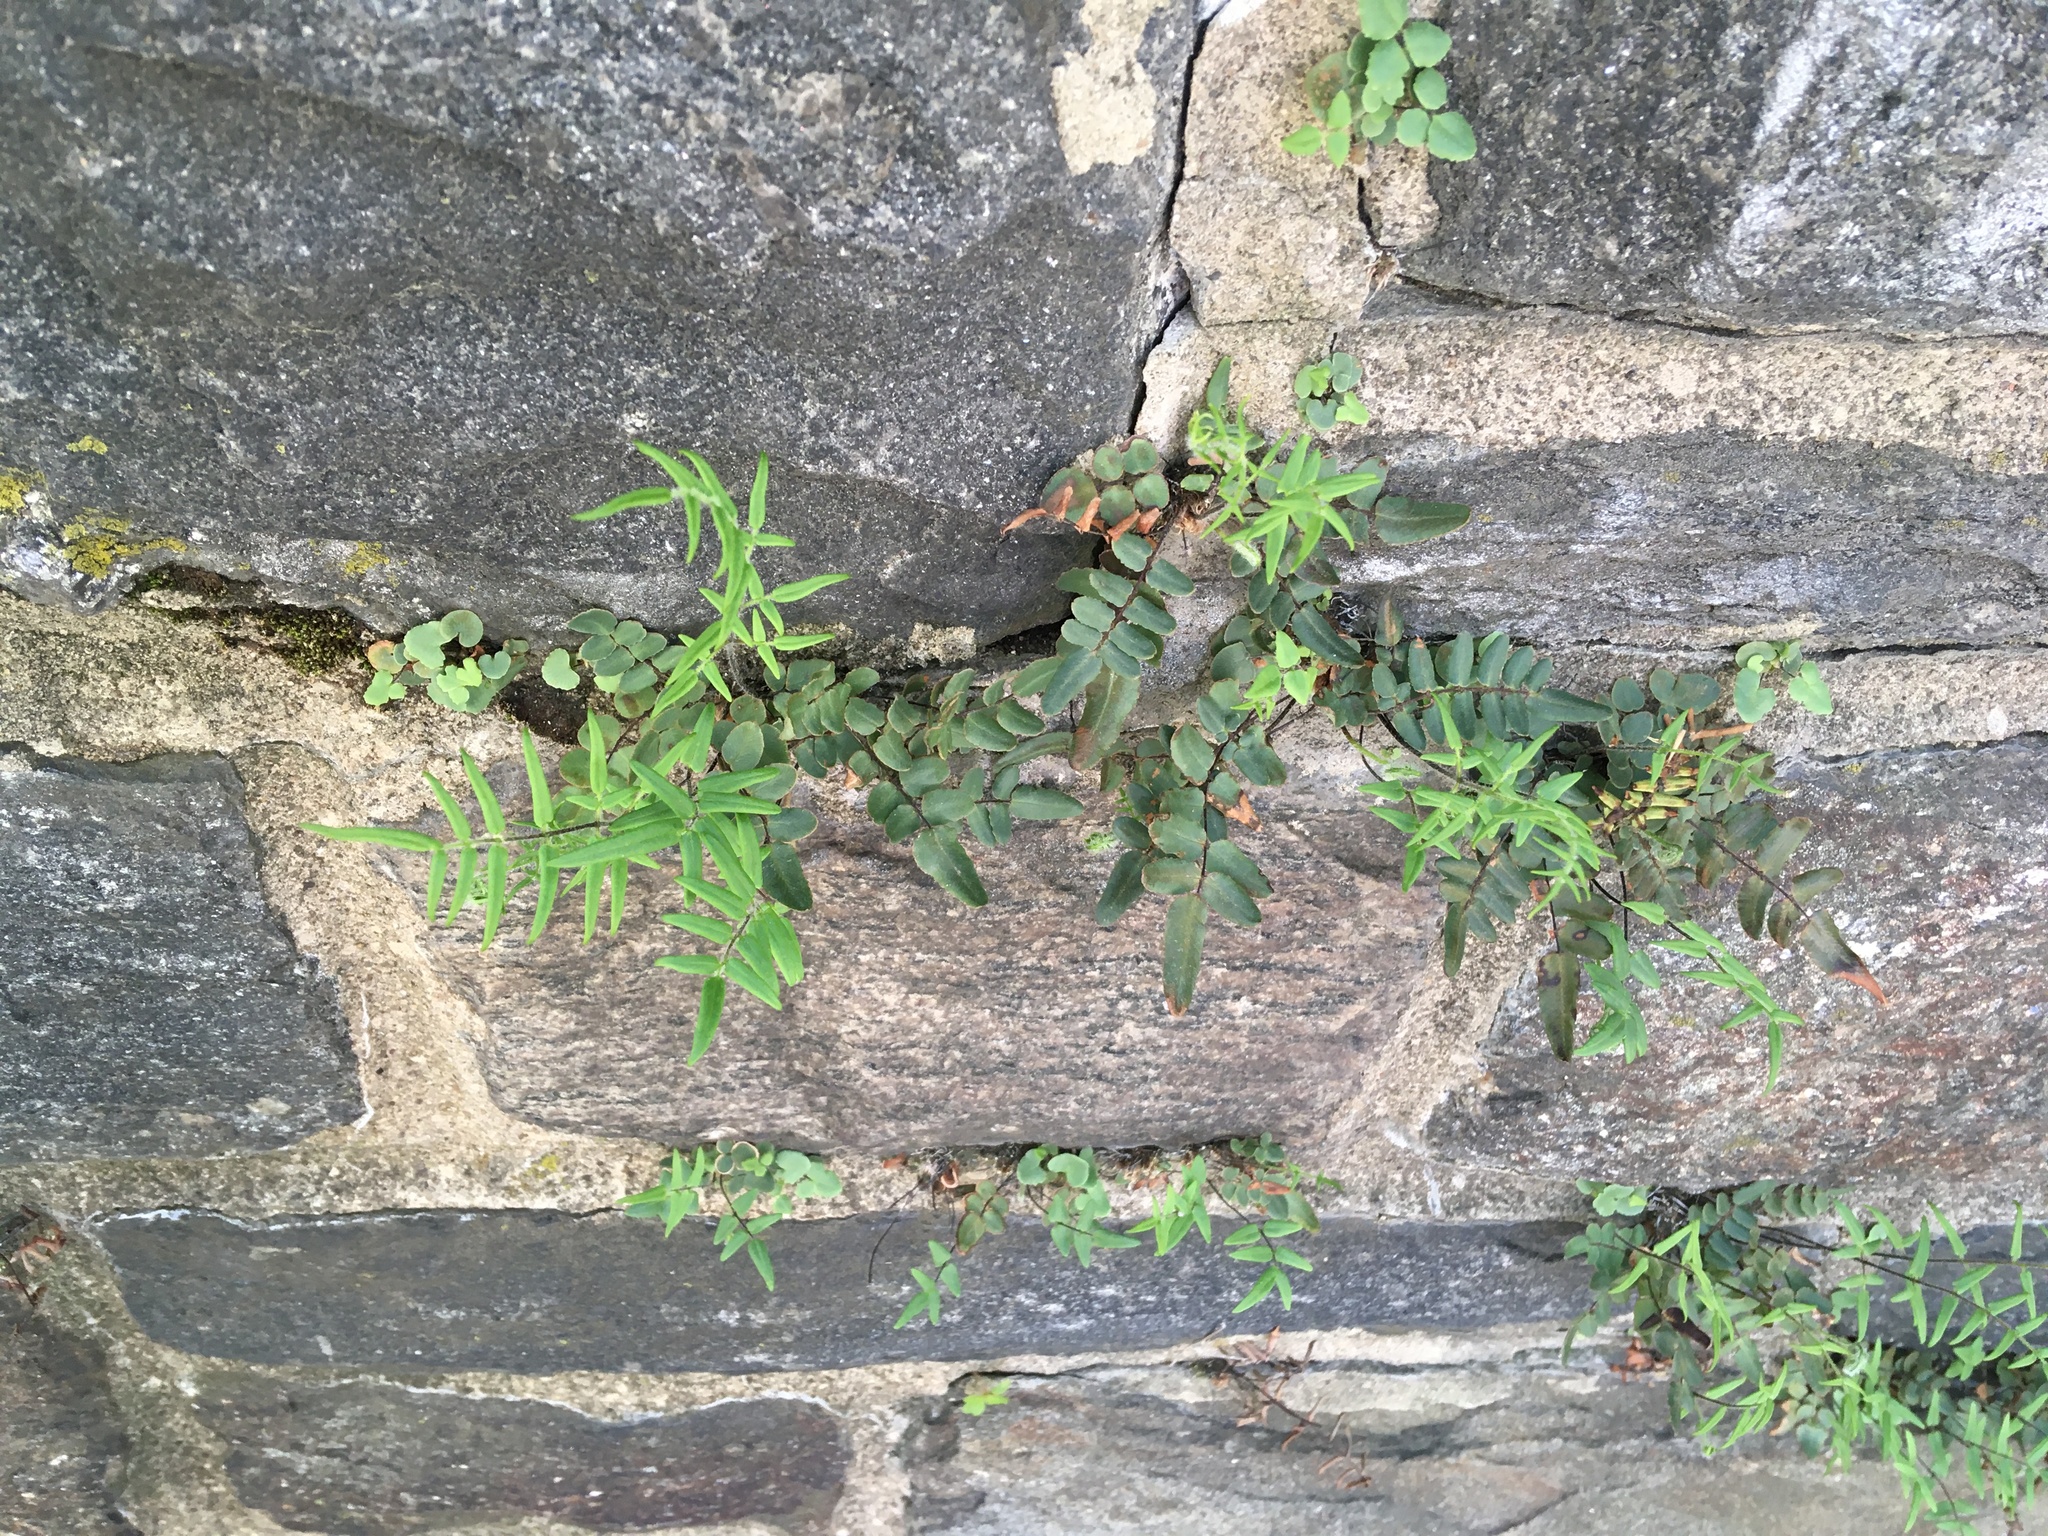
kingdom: Plantae
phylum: Tracheophyta
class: Polypodiopsida
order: Polypodiales
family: Pteridaceae
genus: Pellaea
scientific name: Pellaea atropurpurea
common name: Hairy cliffbrake
